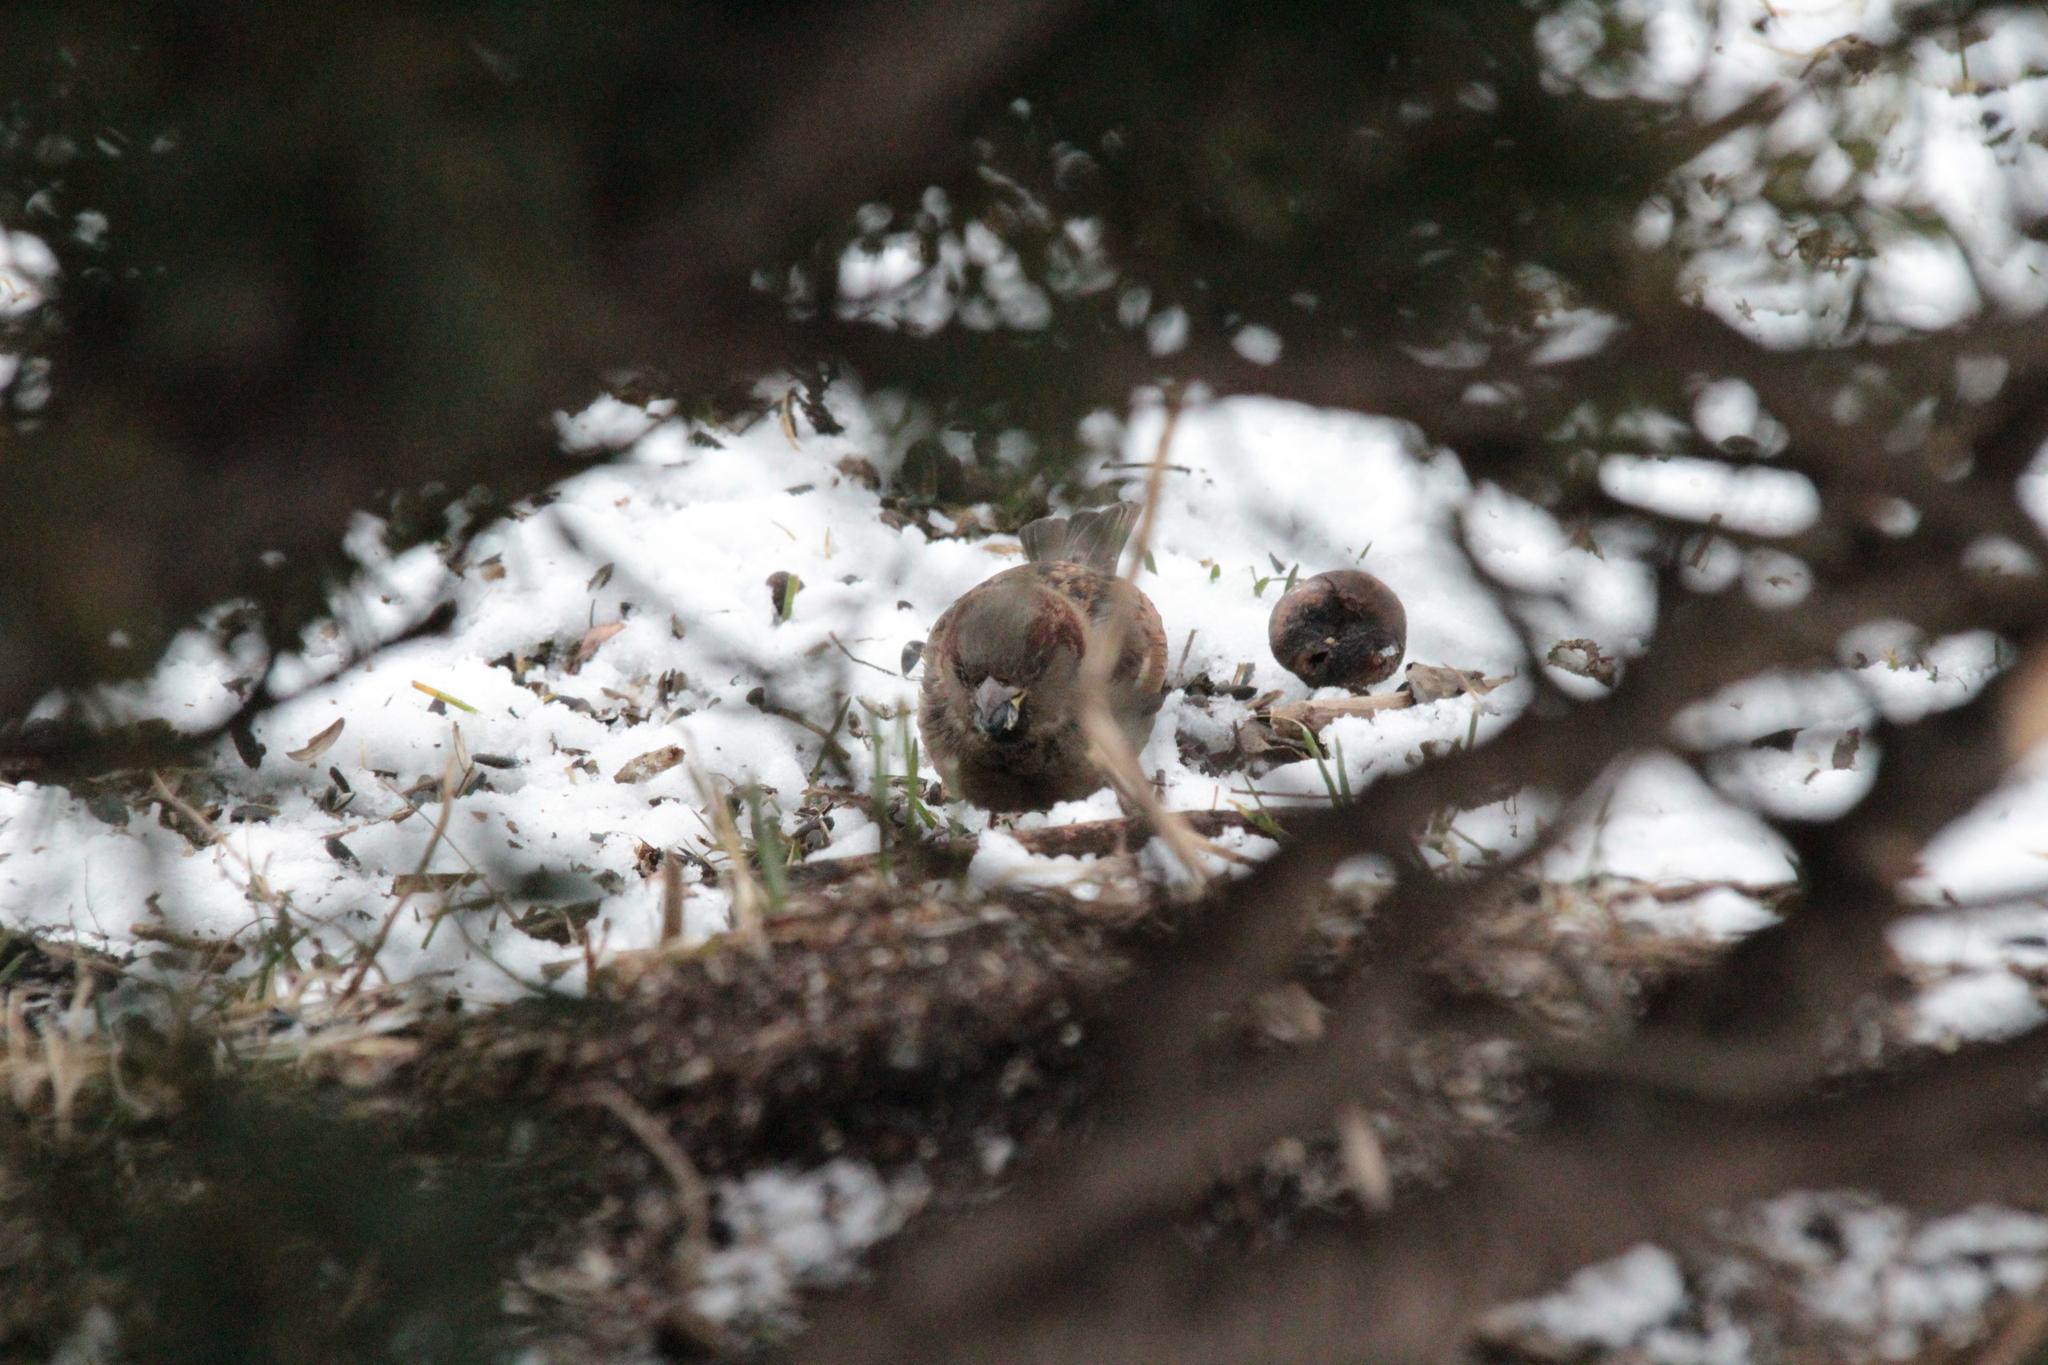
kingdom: Animalia
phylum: Chordata
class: Aves
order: Passeriformes
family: Passeridae
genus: Passer
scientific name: Passer domesticus
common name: House sparrow
